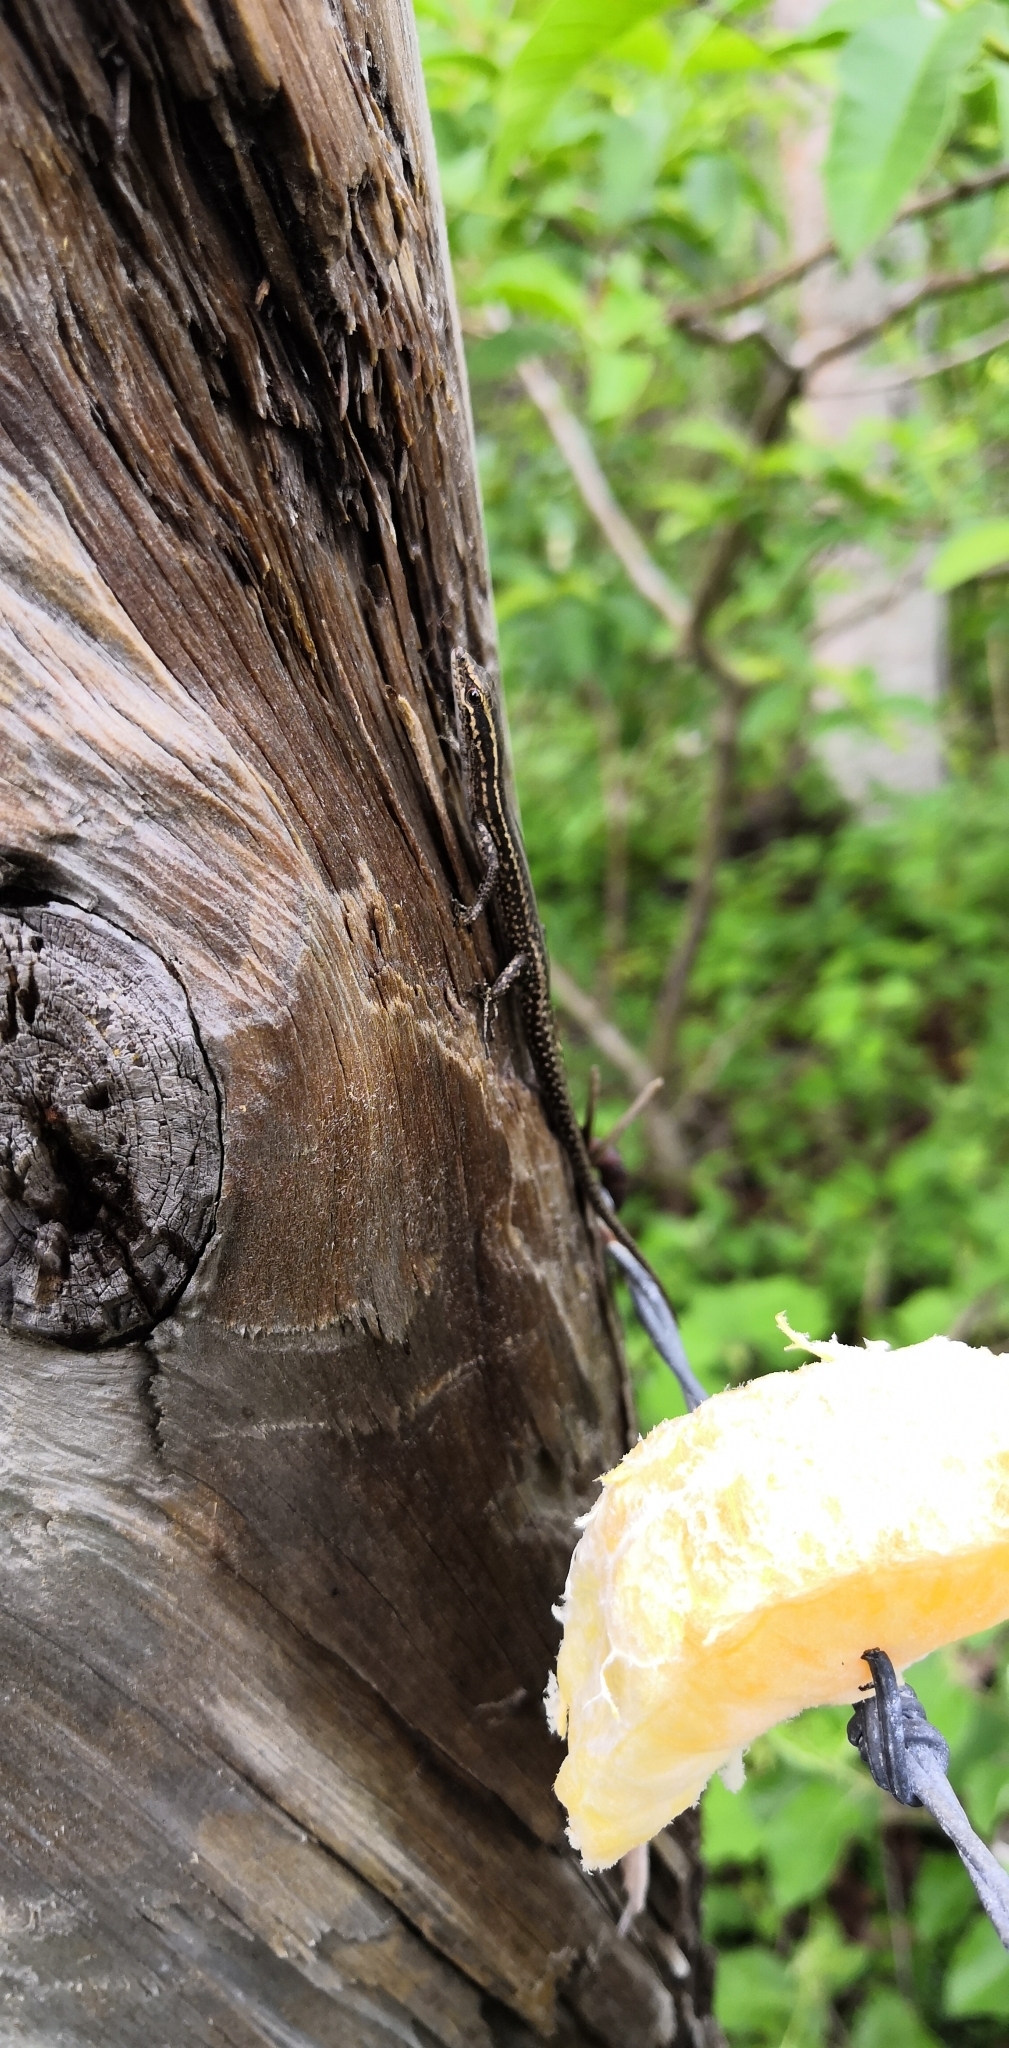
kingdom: Animalia
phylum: Chordata
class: Squamata
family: Scincidae
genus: Cryptoblepharus
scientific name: Cryptoblepharus eximius
